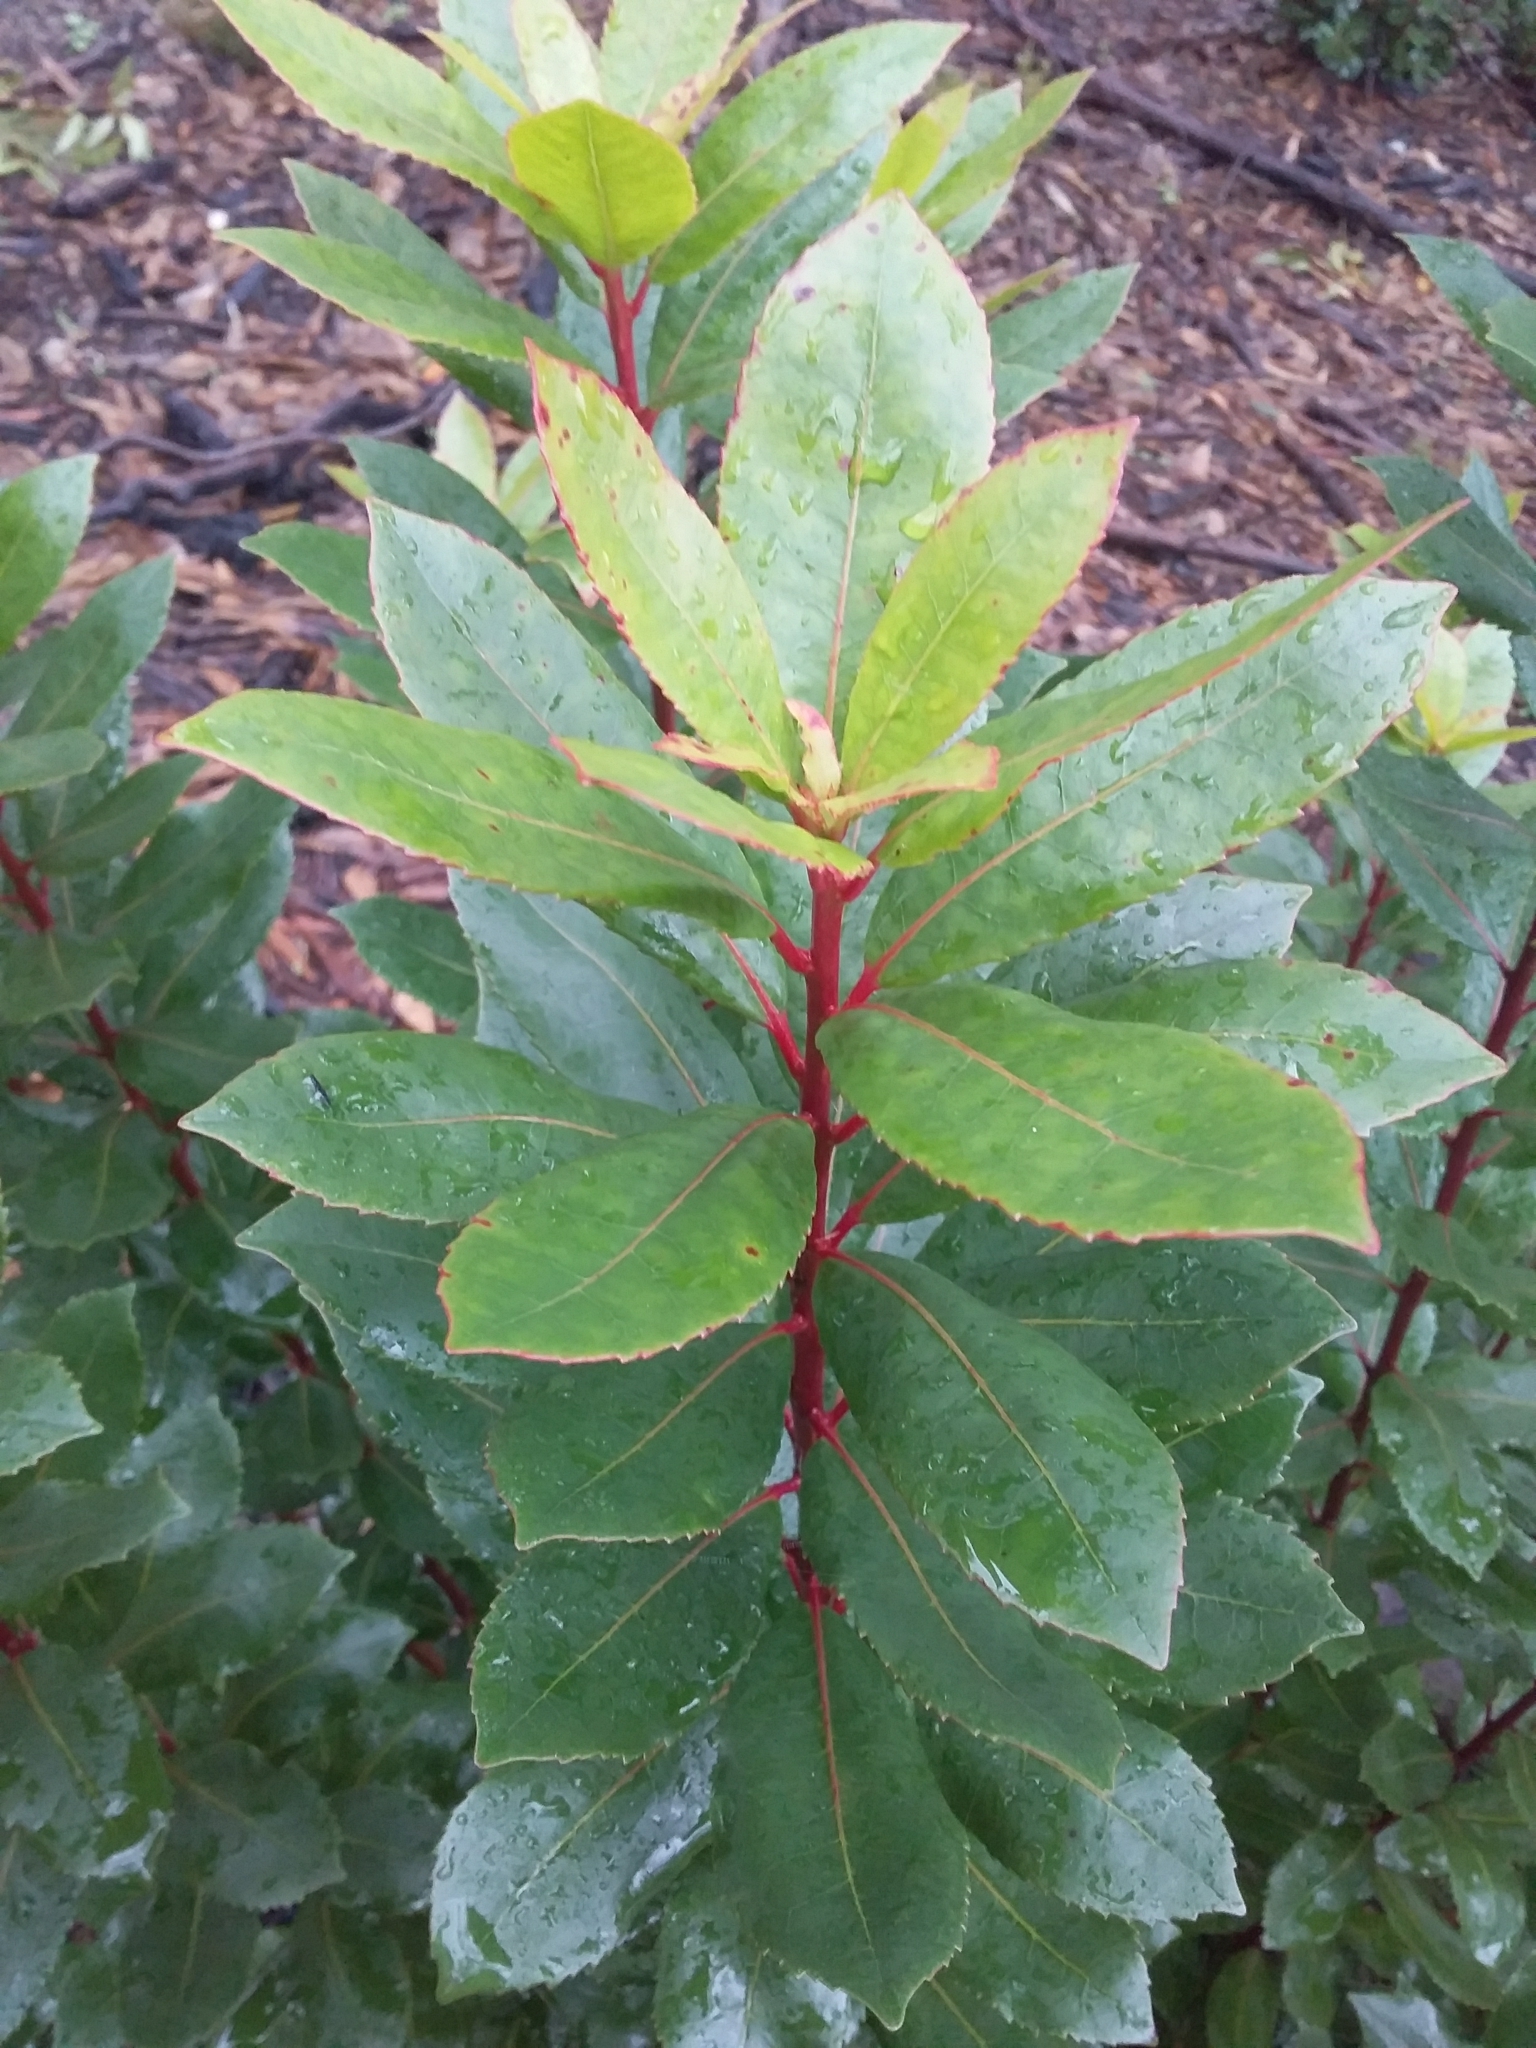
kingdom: Plantae
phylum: Tracheophyta
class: Magnoliopsida
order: Ericales
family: Ericaceae
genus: Arbutus
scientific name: Arbutus unedo
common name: Strawberry-tree
